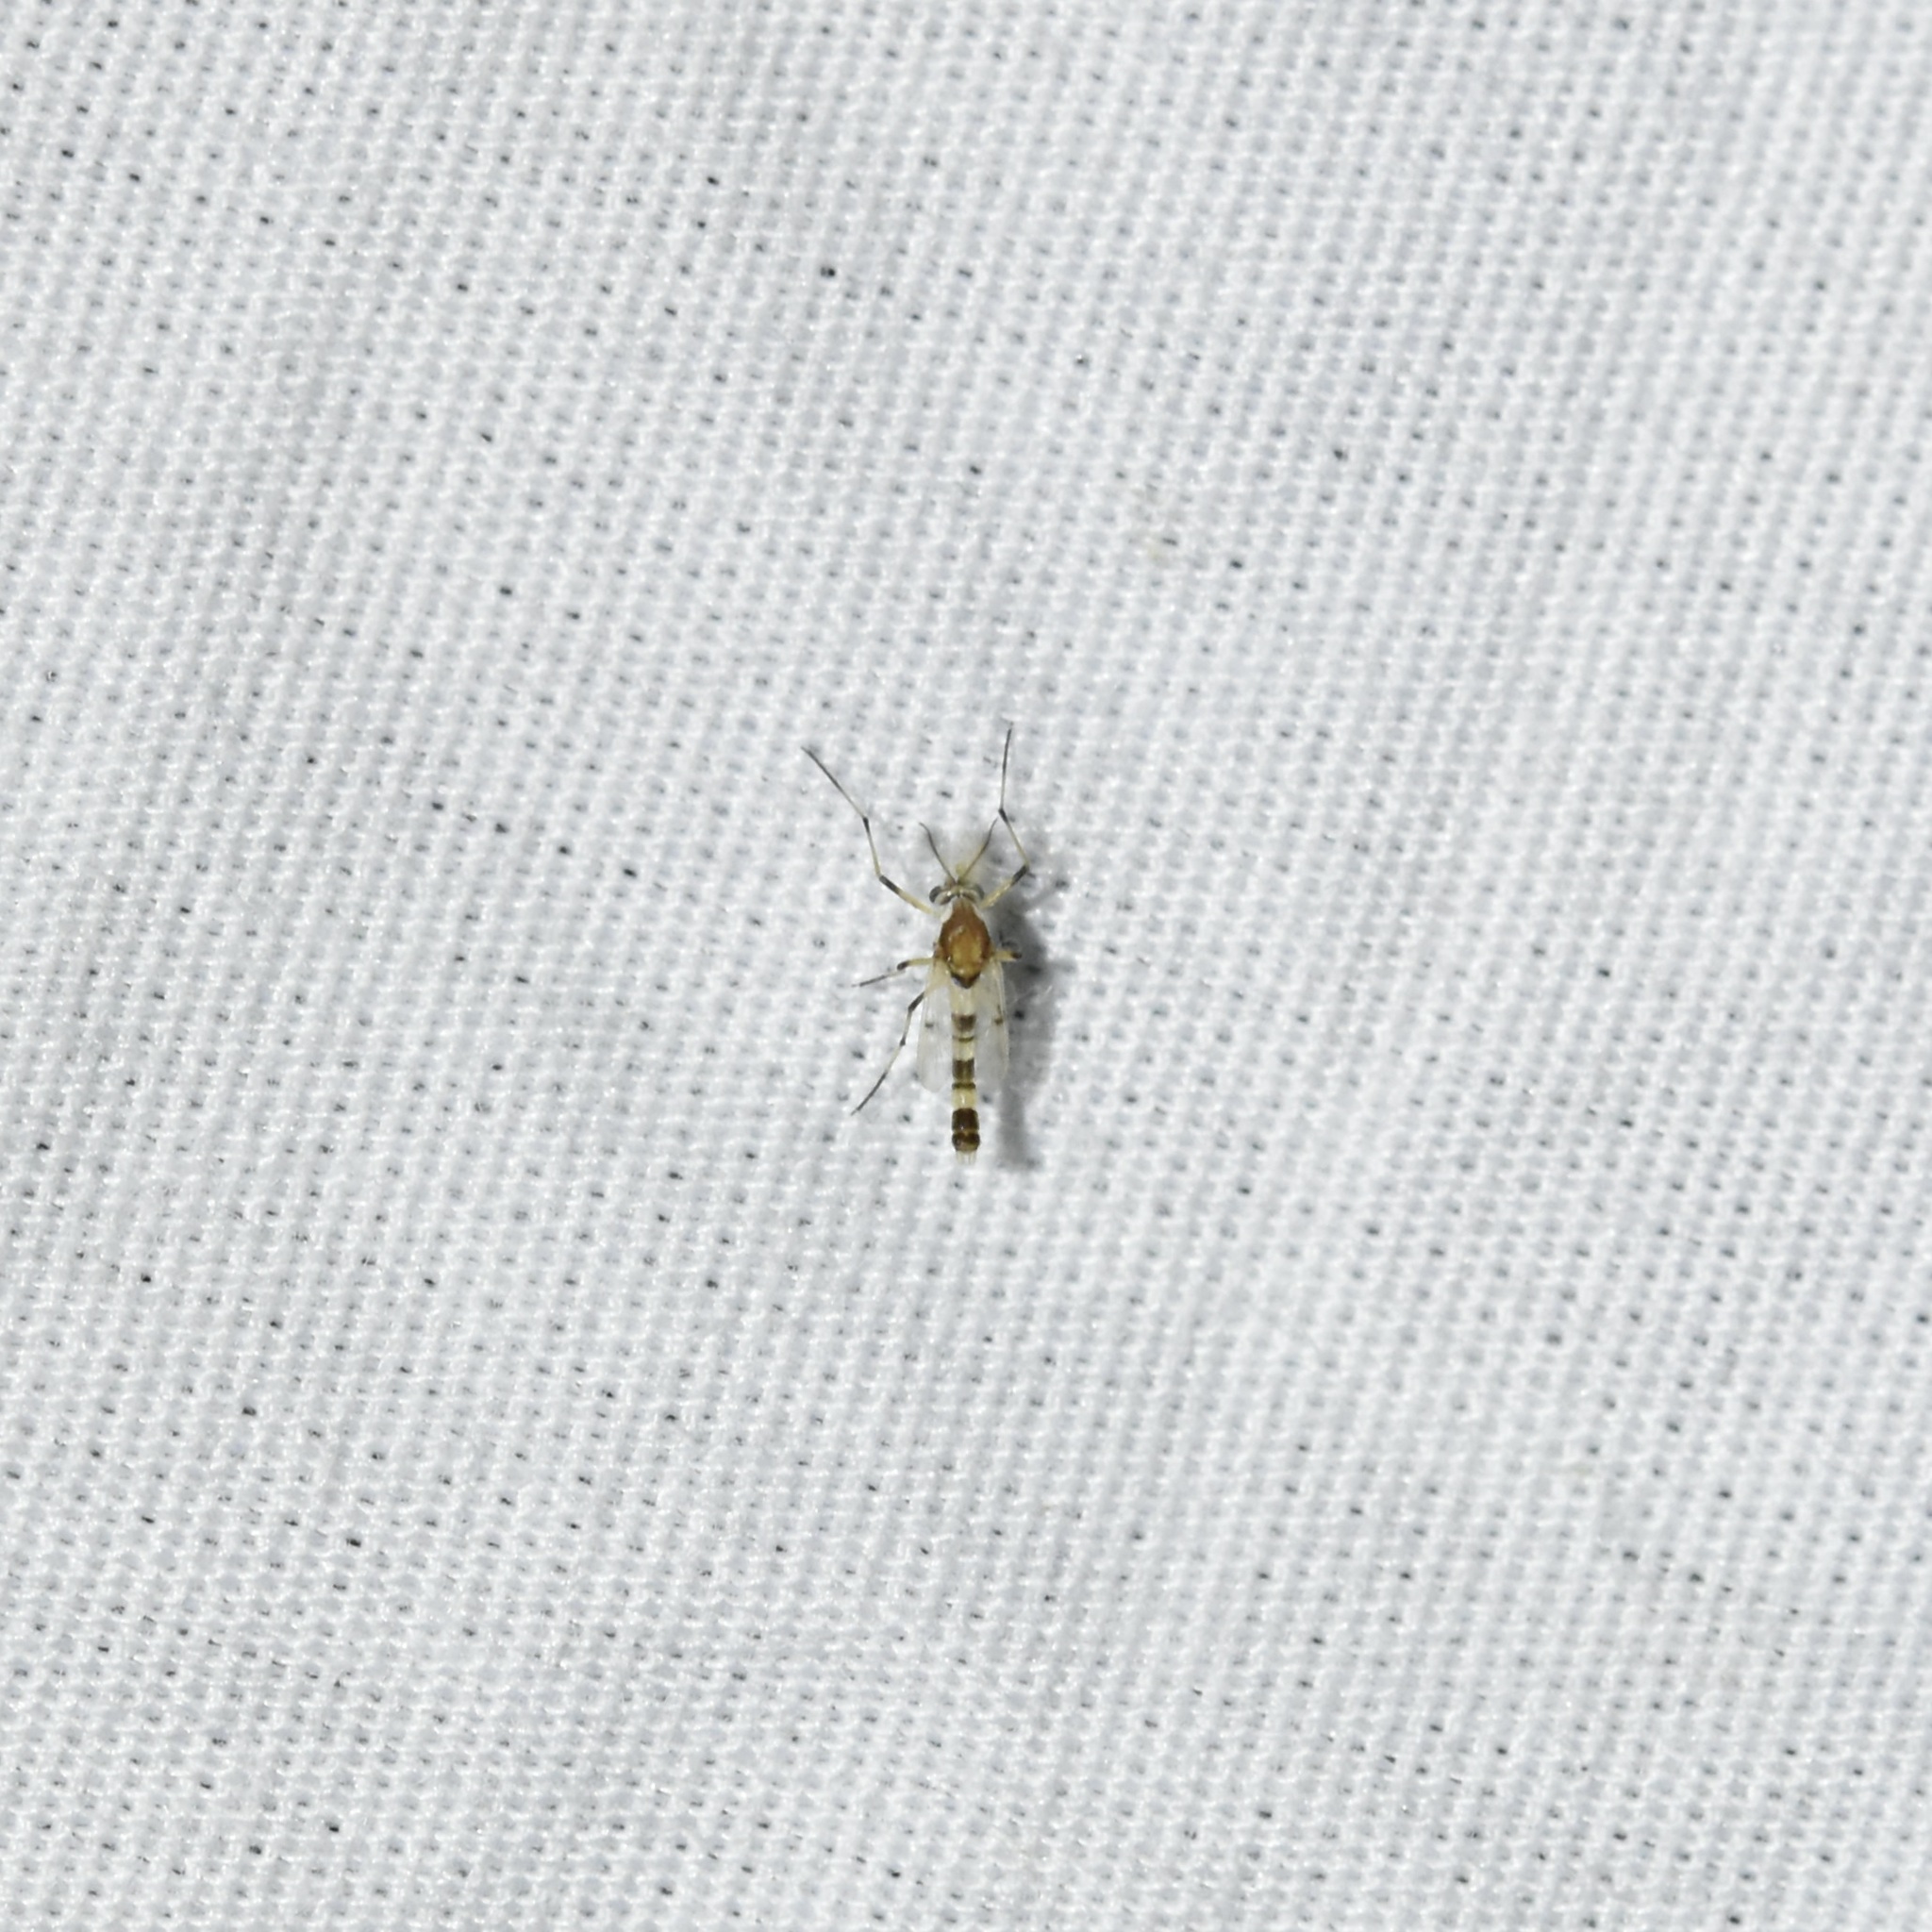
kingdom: Animalia
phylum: Arthropoda
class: Insecta
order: Diptera
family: Chironomidae
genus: Coelotanypus
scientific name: Coelotanypus atus
